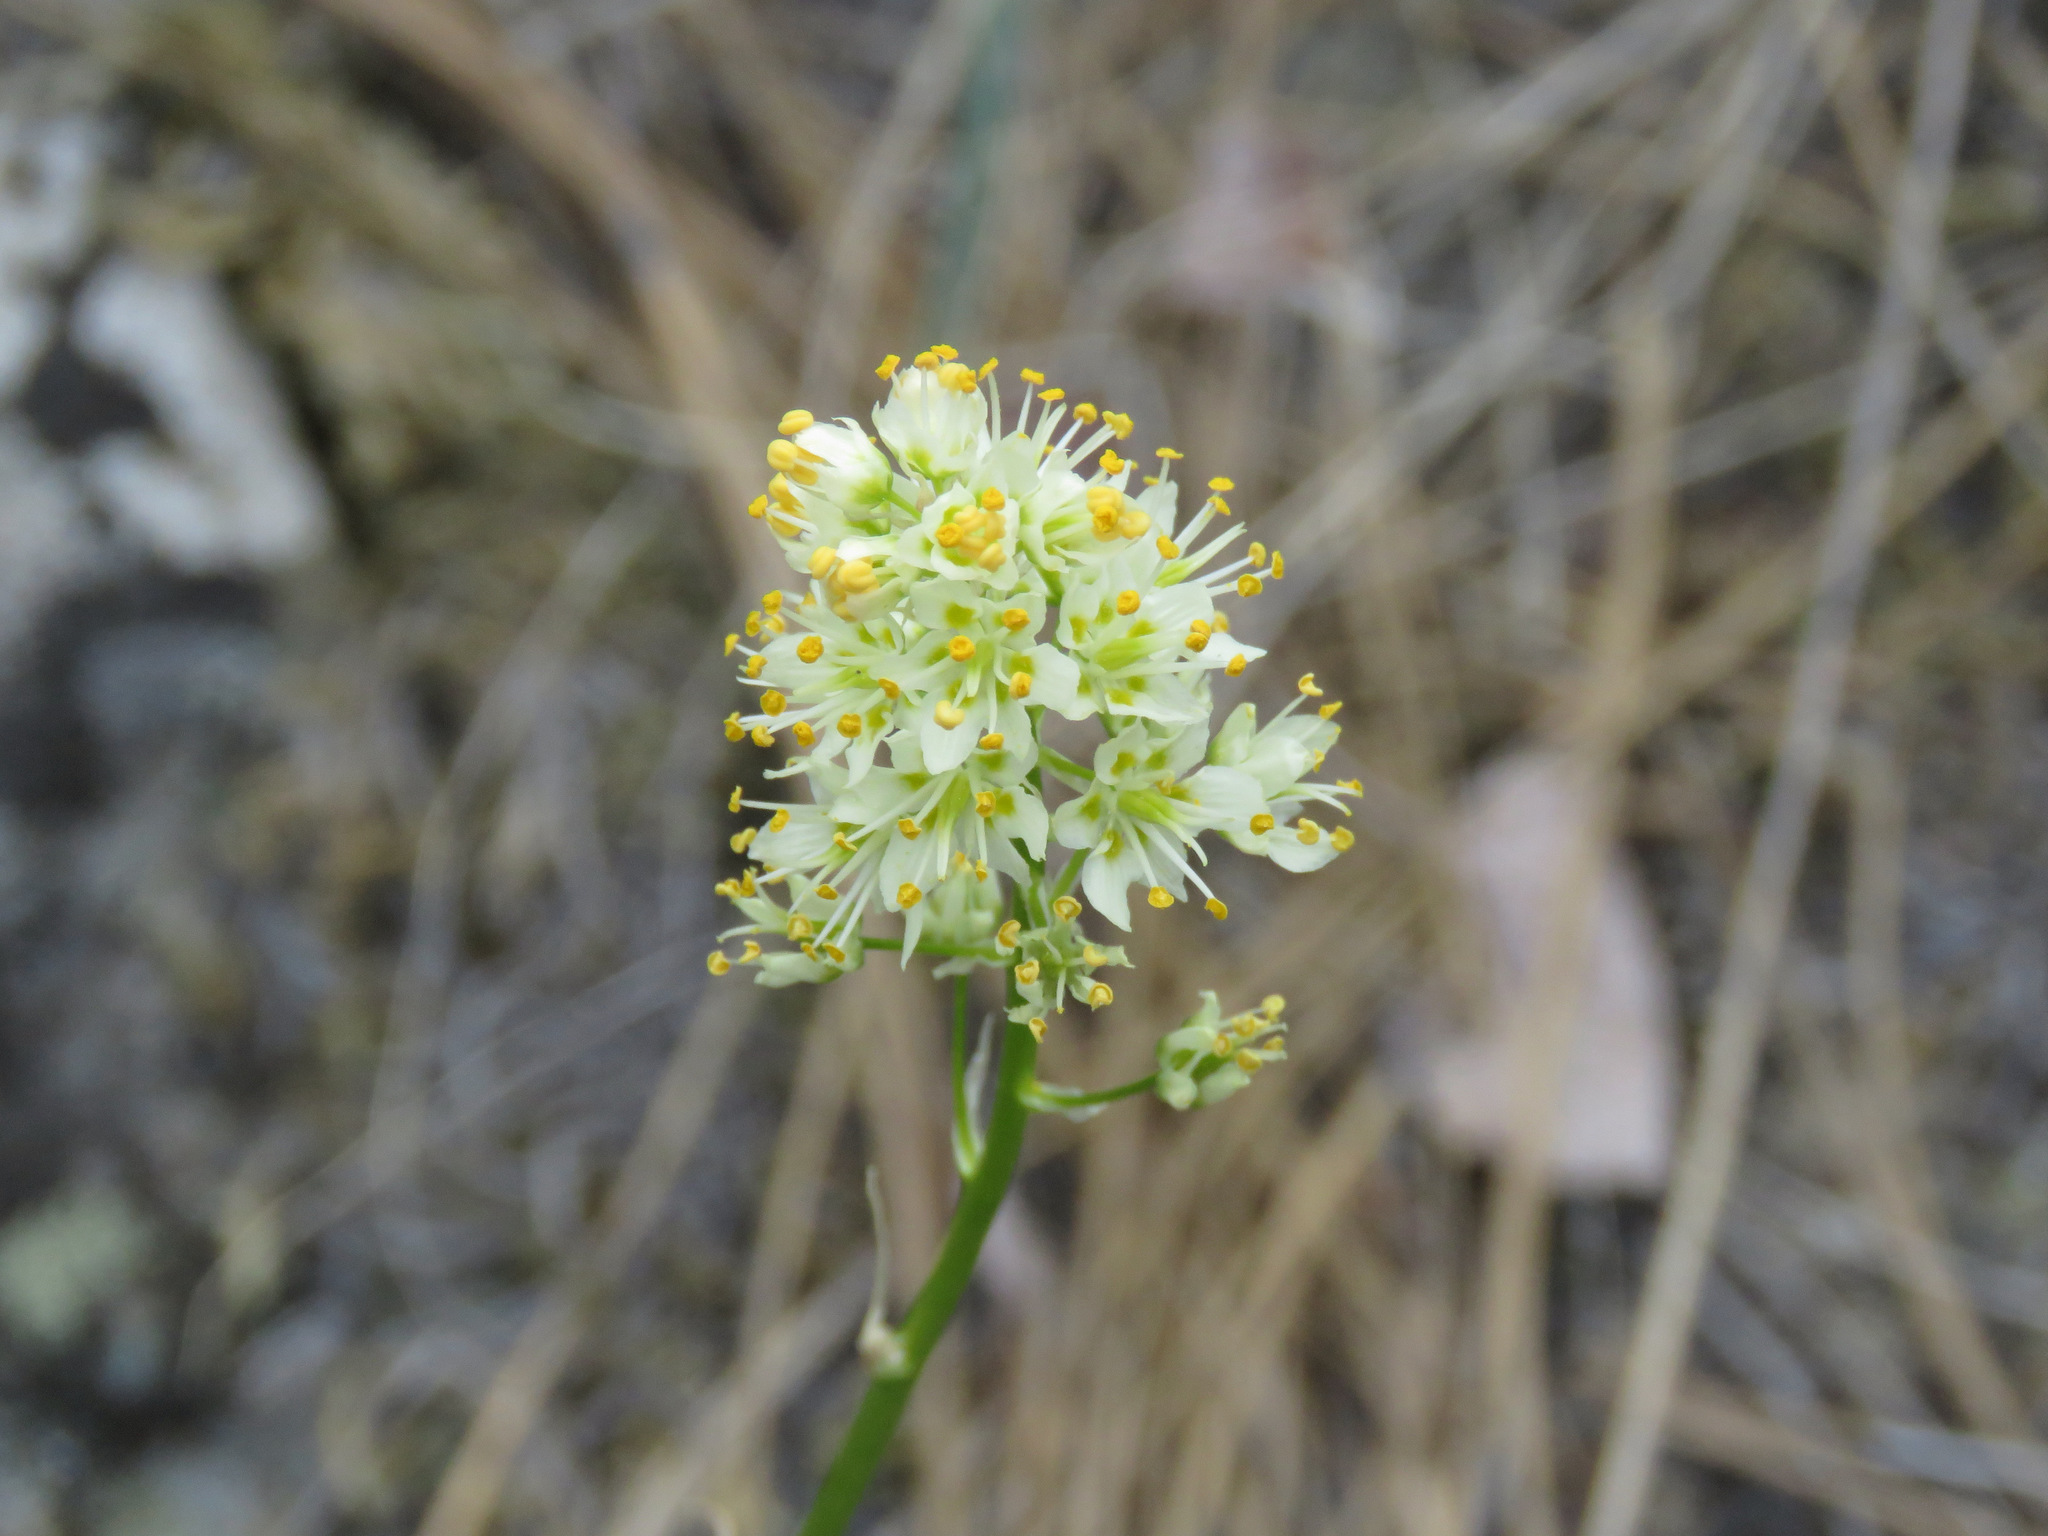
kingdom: Plantae
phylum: Tracheophyta
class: Liliopsida
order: Liliales
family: Melanthiaceae
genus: Toxicoscordion
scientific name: Toxicoscordion venenosum
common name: Meadow death camas
